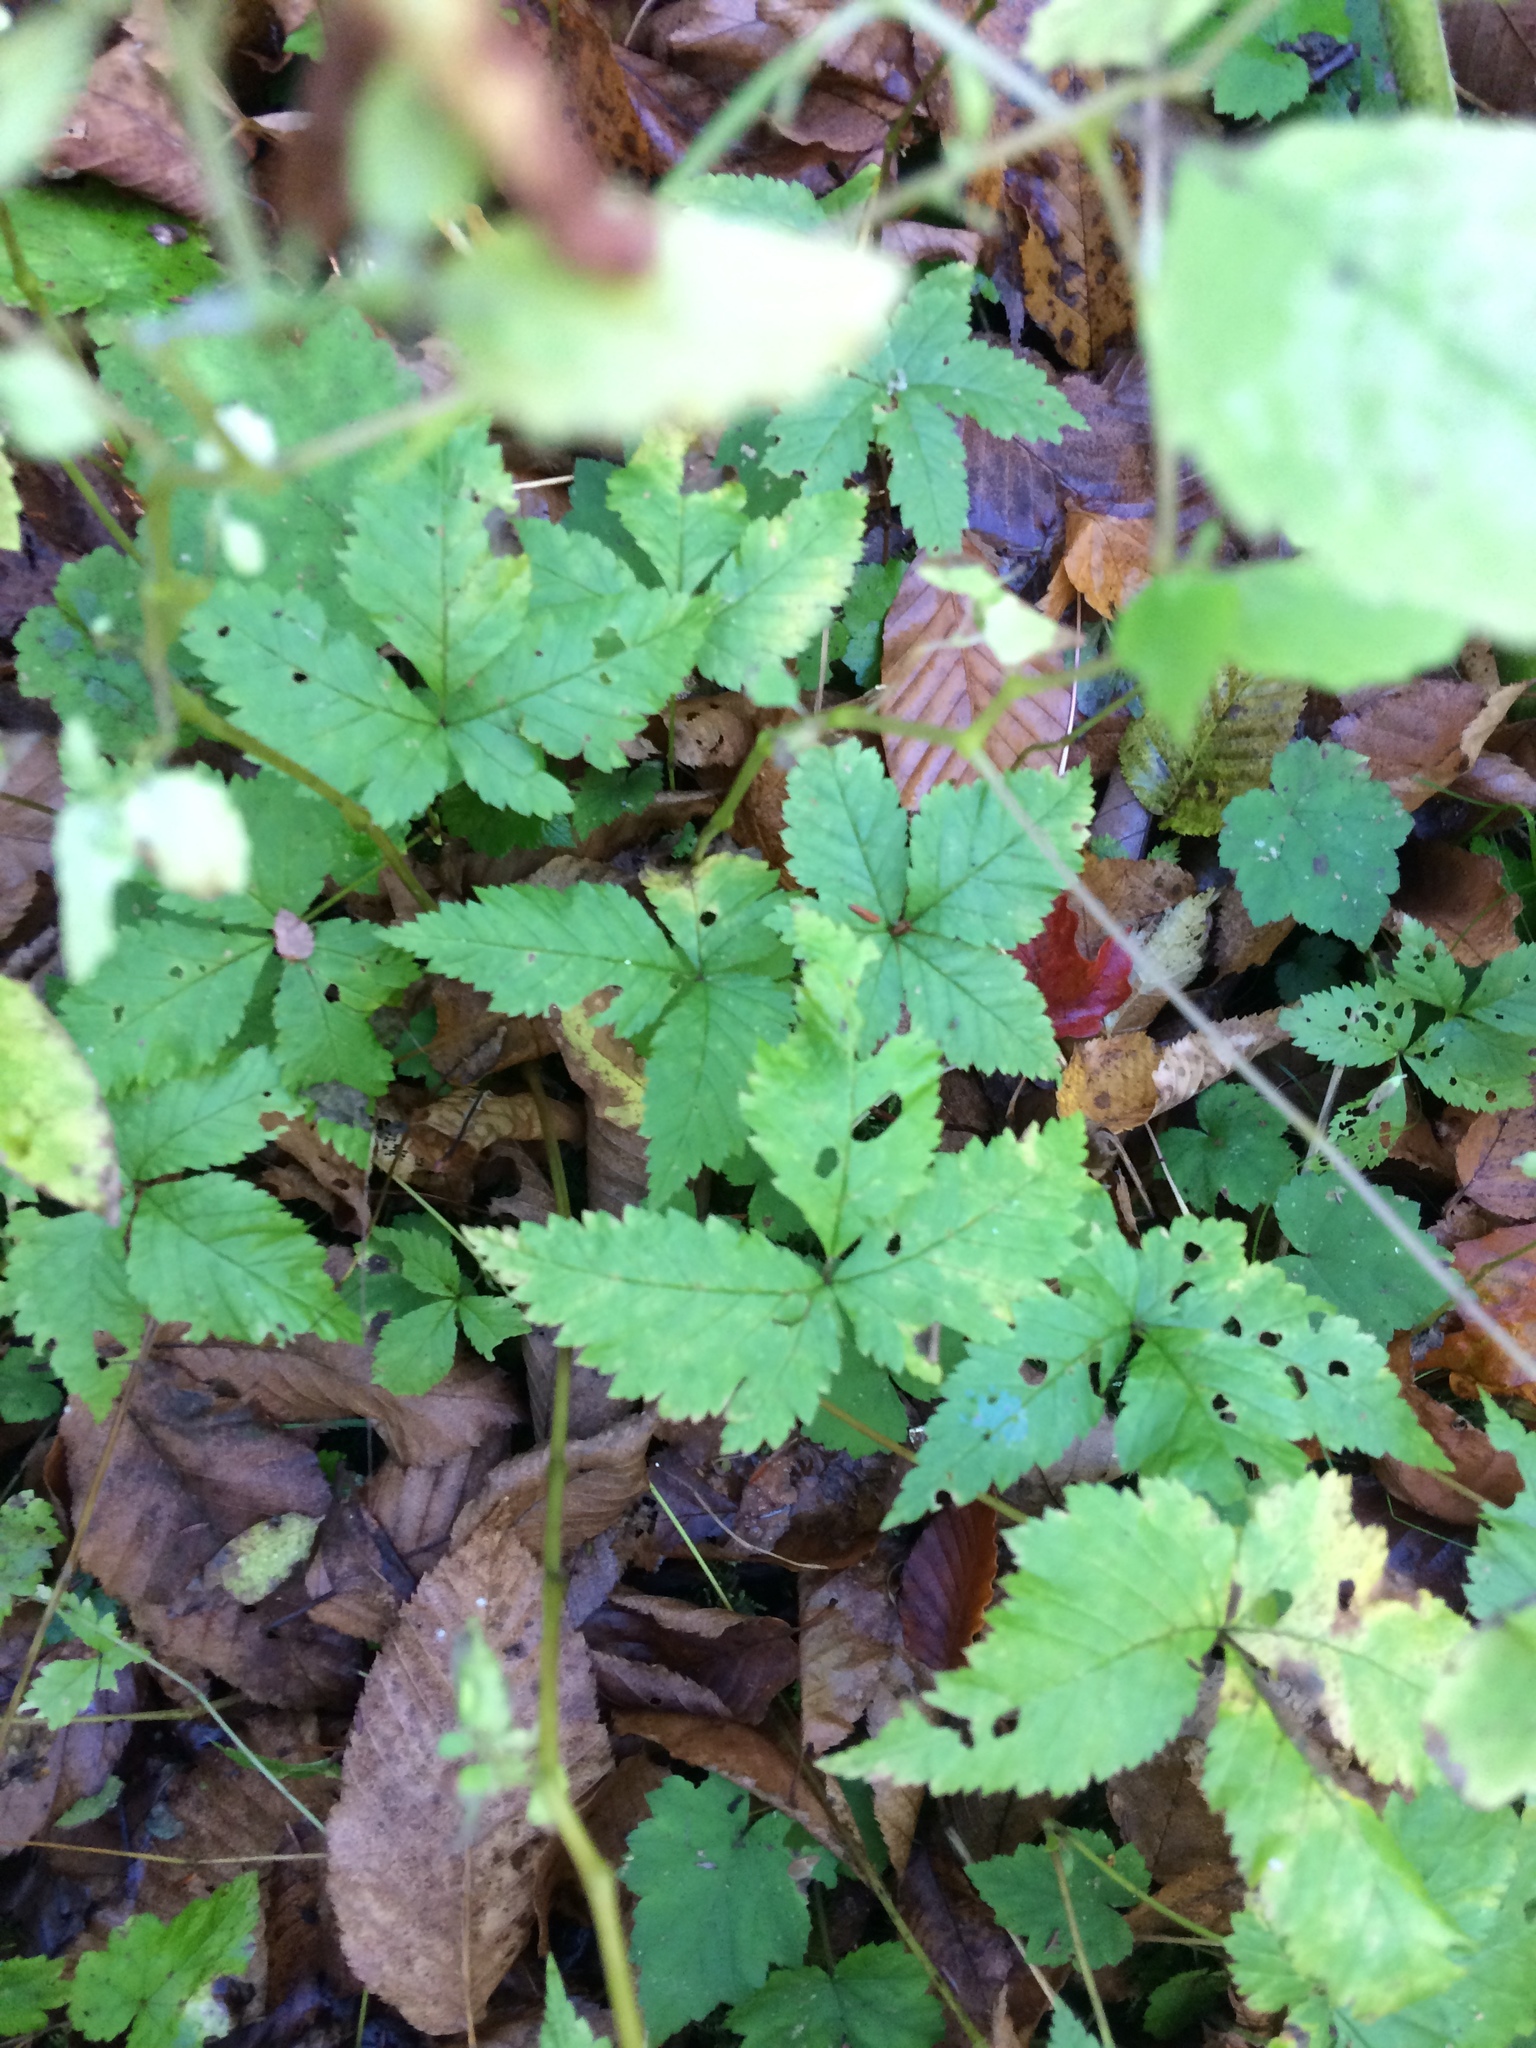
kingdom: Plantae
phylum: Tracheophyta
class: Magnoliopsida
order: Rosales
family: Rosaceae
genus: Rubus
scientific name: Rubus pubescens
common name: Dwarf raspberry
